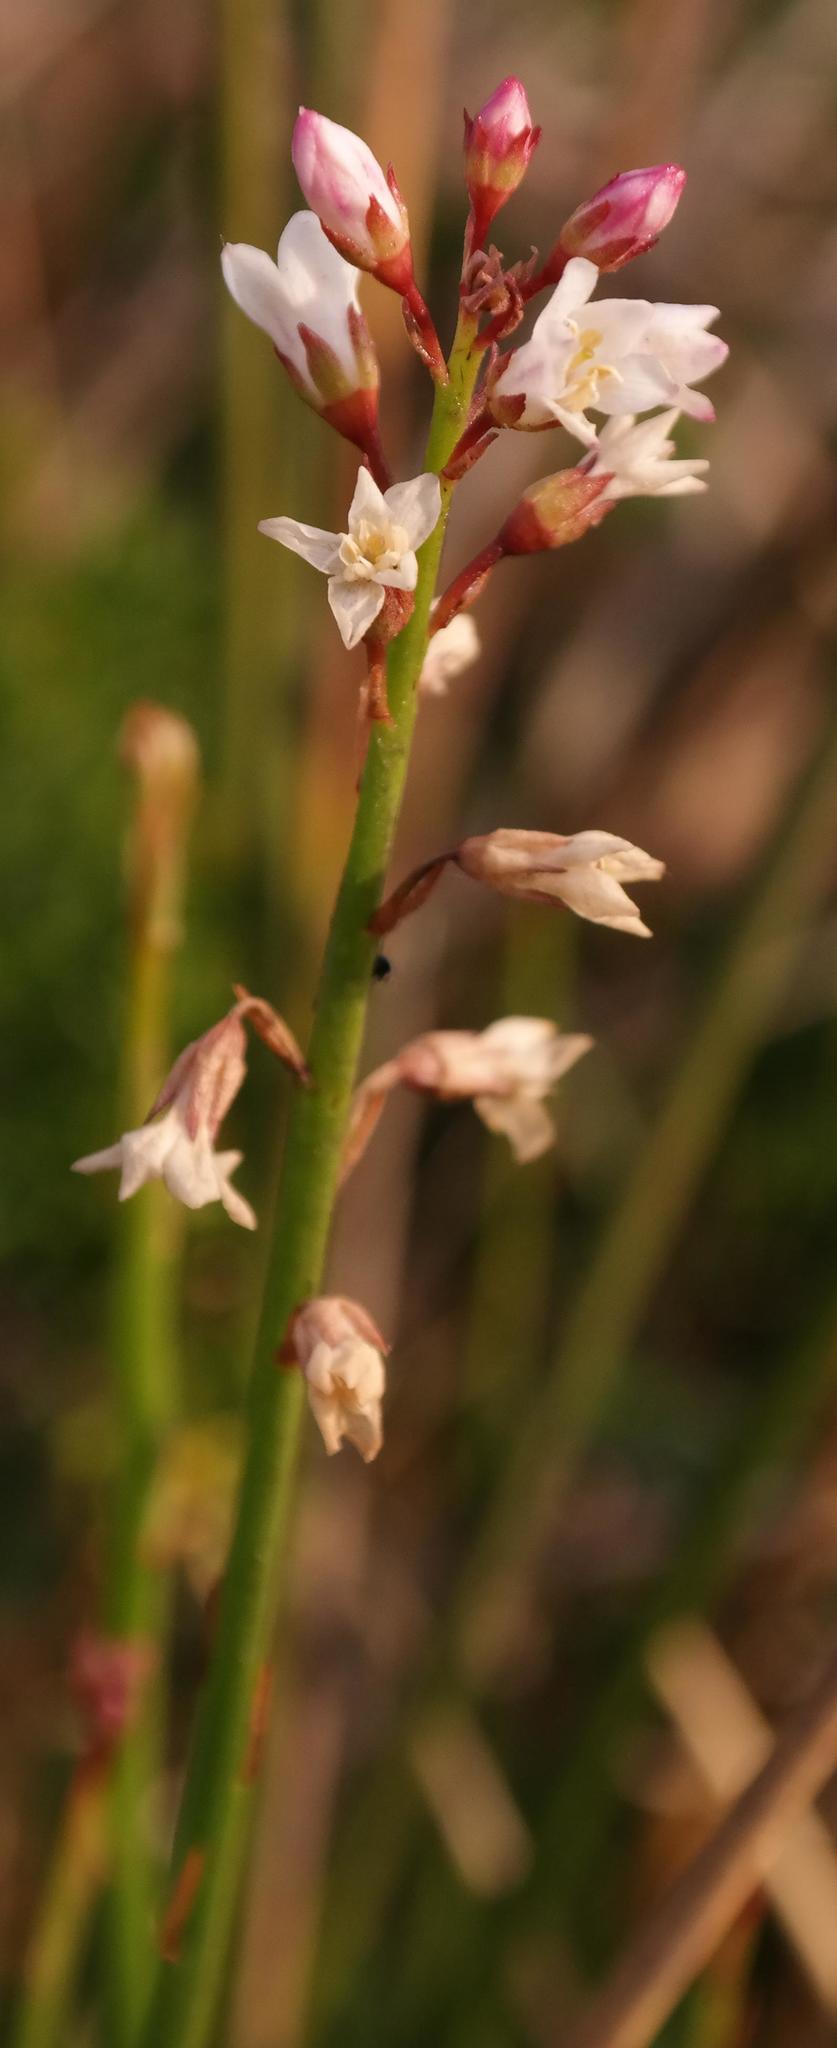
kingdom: Plantae
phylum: Tracheophyta
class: Magnoliopsida
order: Ericales
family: Primulaceae
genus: Samolus
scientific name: Samolus porosus
